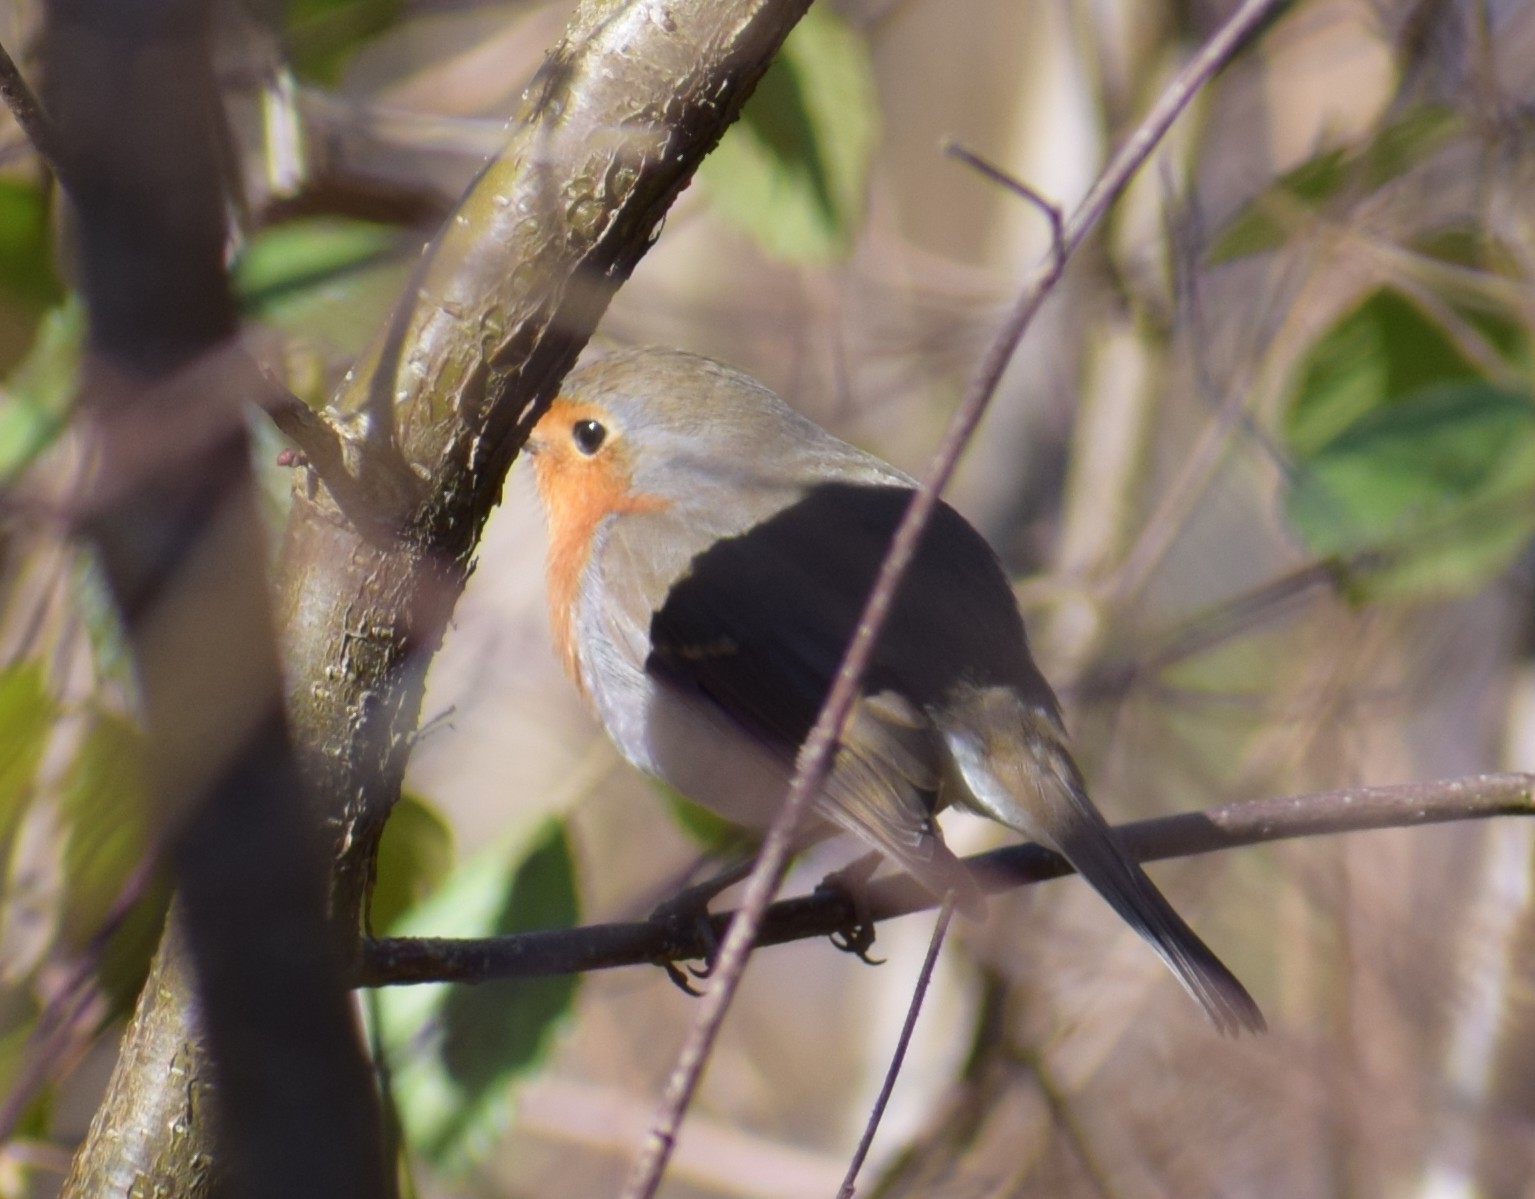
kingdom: Animalia
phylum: Chordata
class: Aves
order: Passeriformes
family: Muscicapidae
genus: Erithacus
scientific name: Erithacus rubecula
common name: European robin
